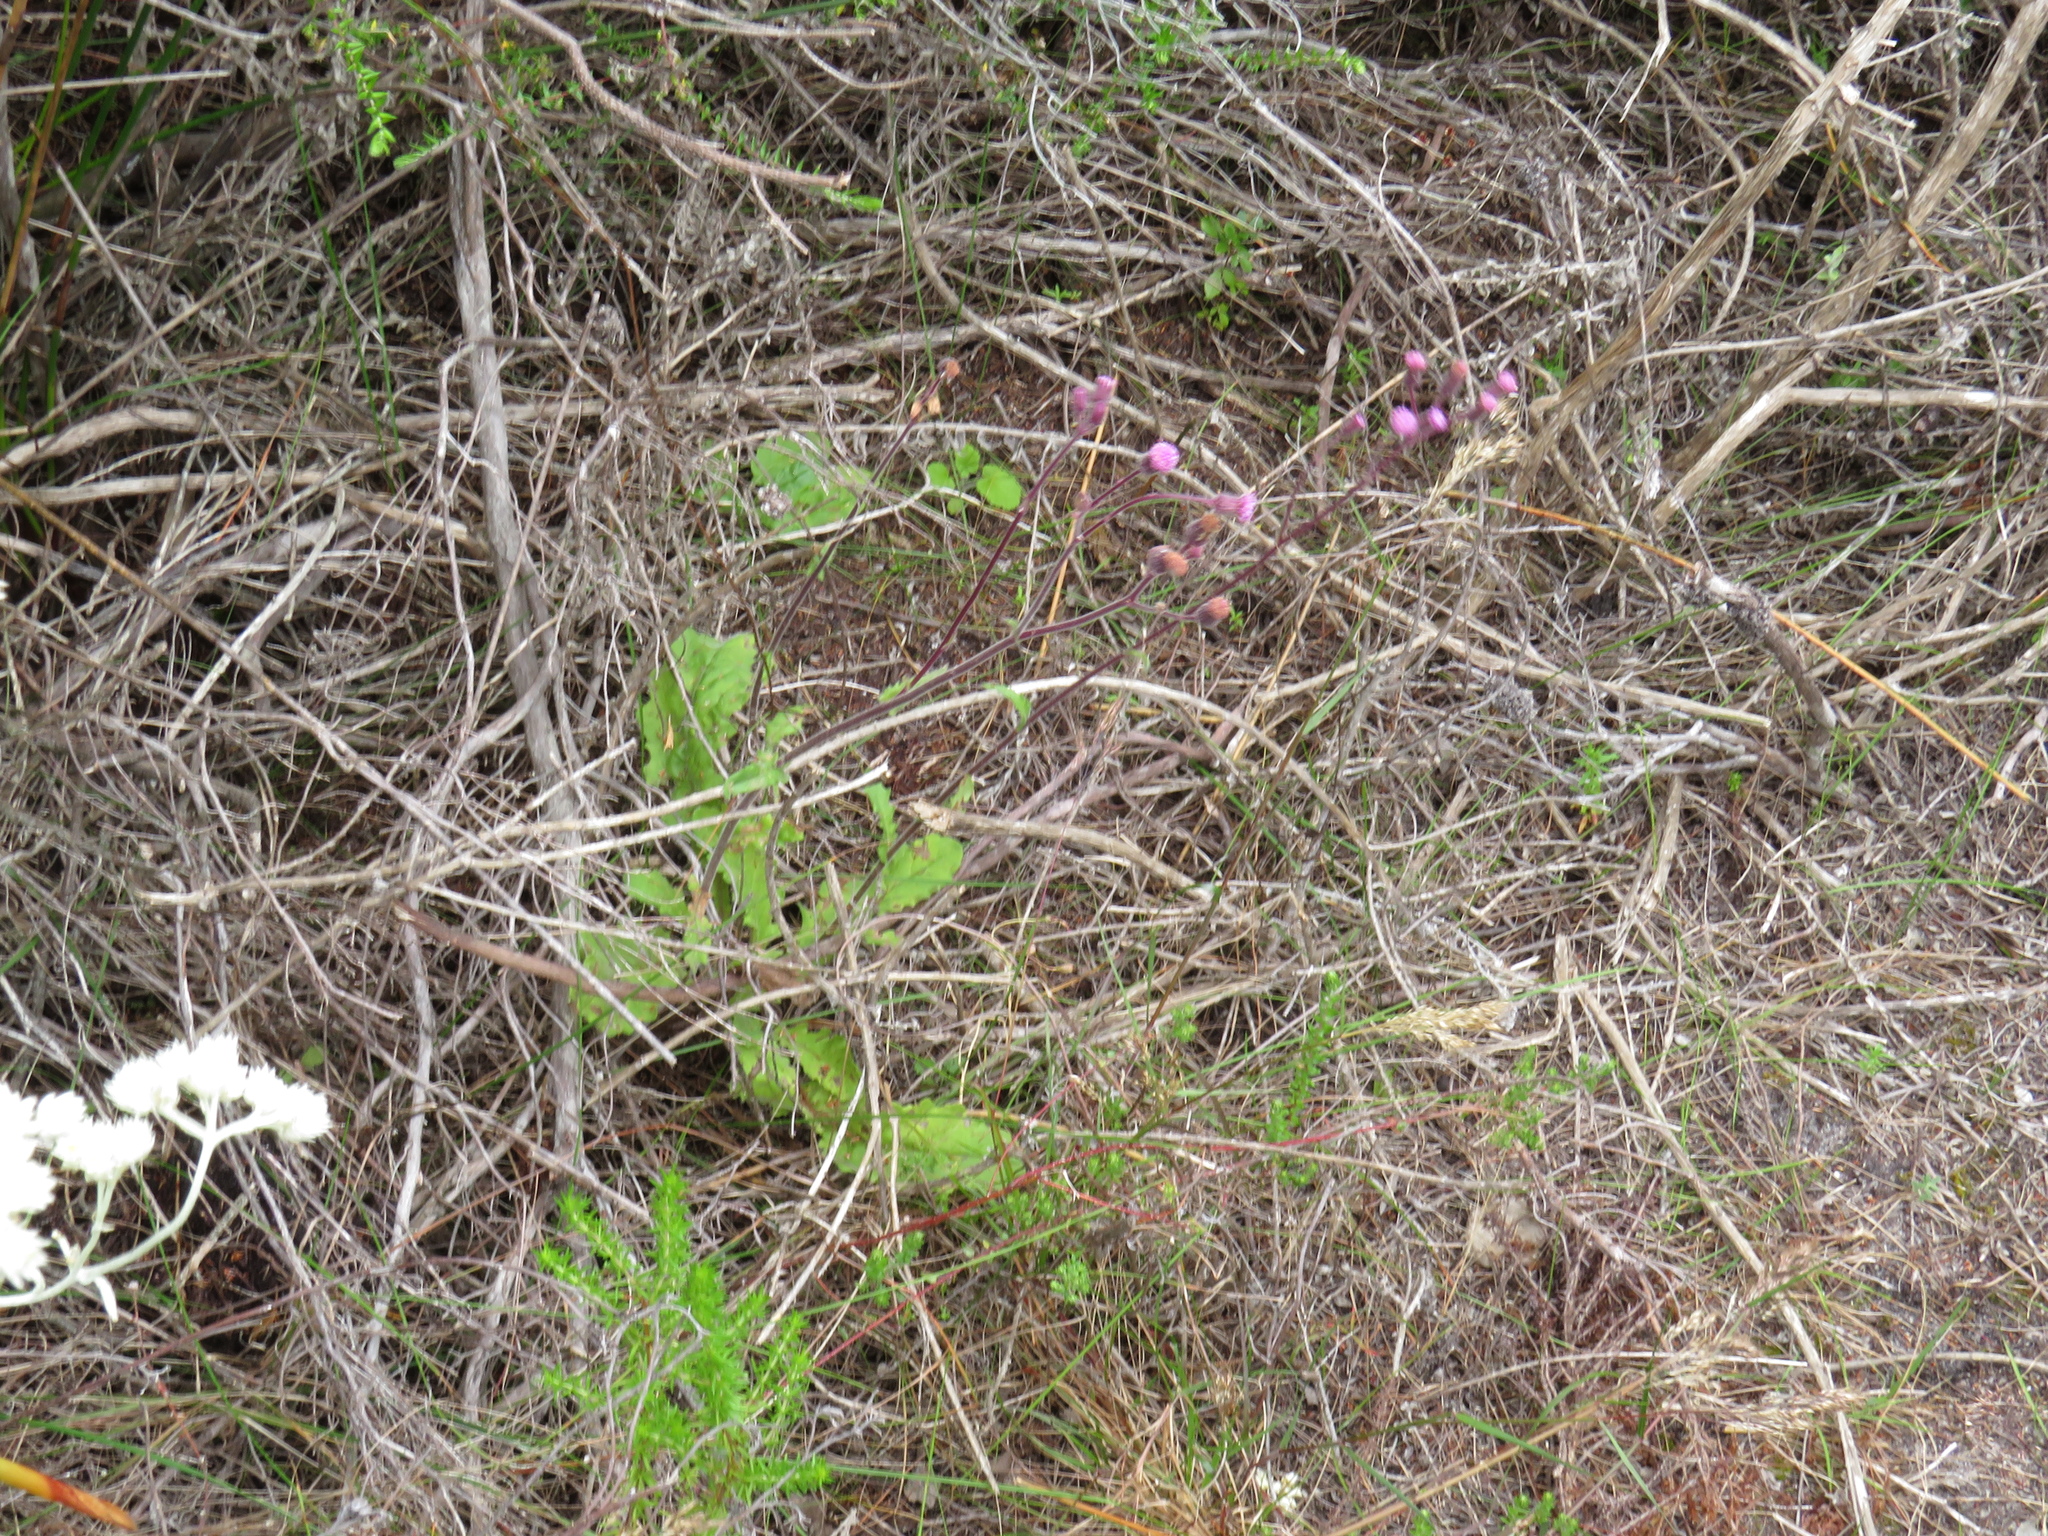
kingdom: Plantae
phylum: Tracheophyta
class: Magnoliopsida
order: Asterales
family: Asteraceae
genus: Senecio
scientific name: Senecio purpureus
